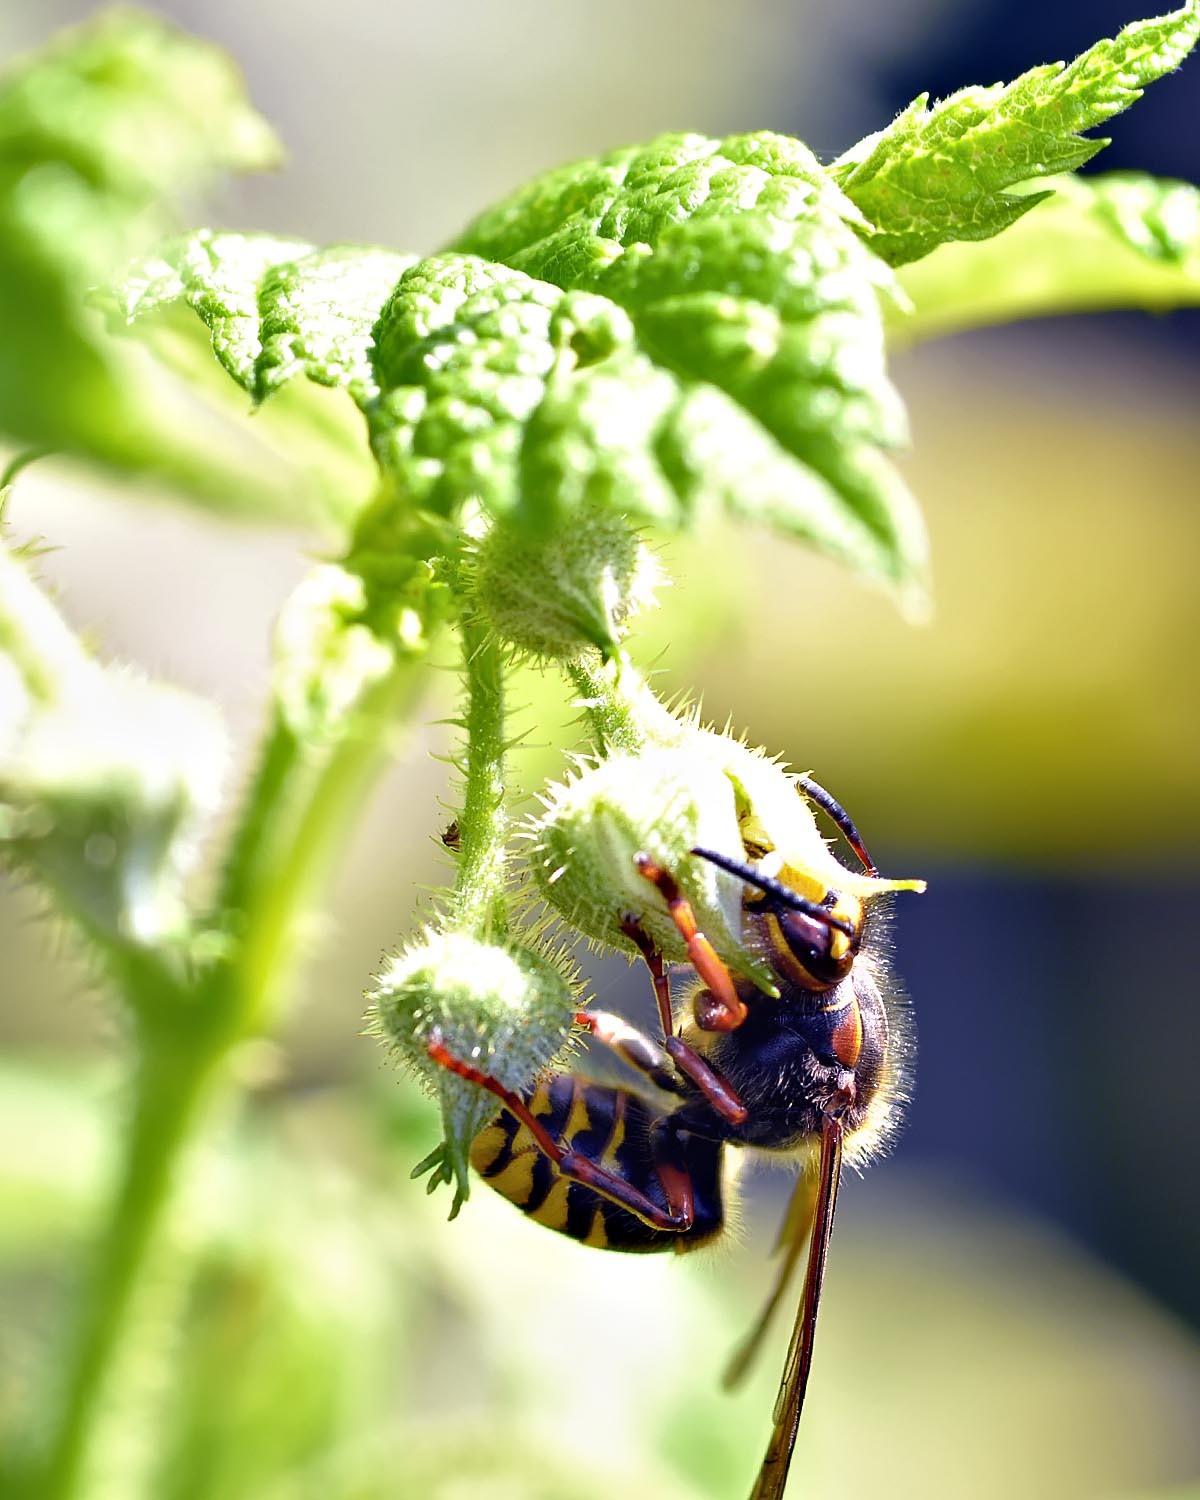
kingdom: Animalia
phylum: Arthropoda
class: Insecta
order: Hymenoptera
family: Vespidae
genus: Dolichovespula
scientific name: Dolichovespula media
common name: Median wasp
